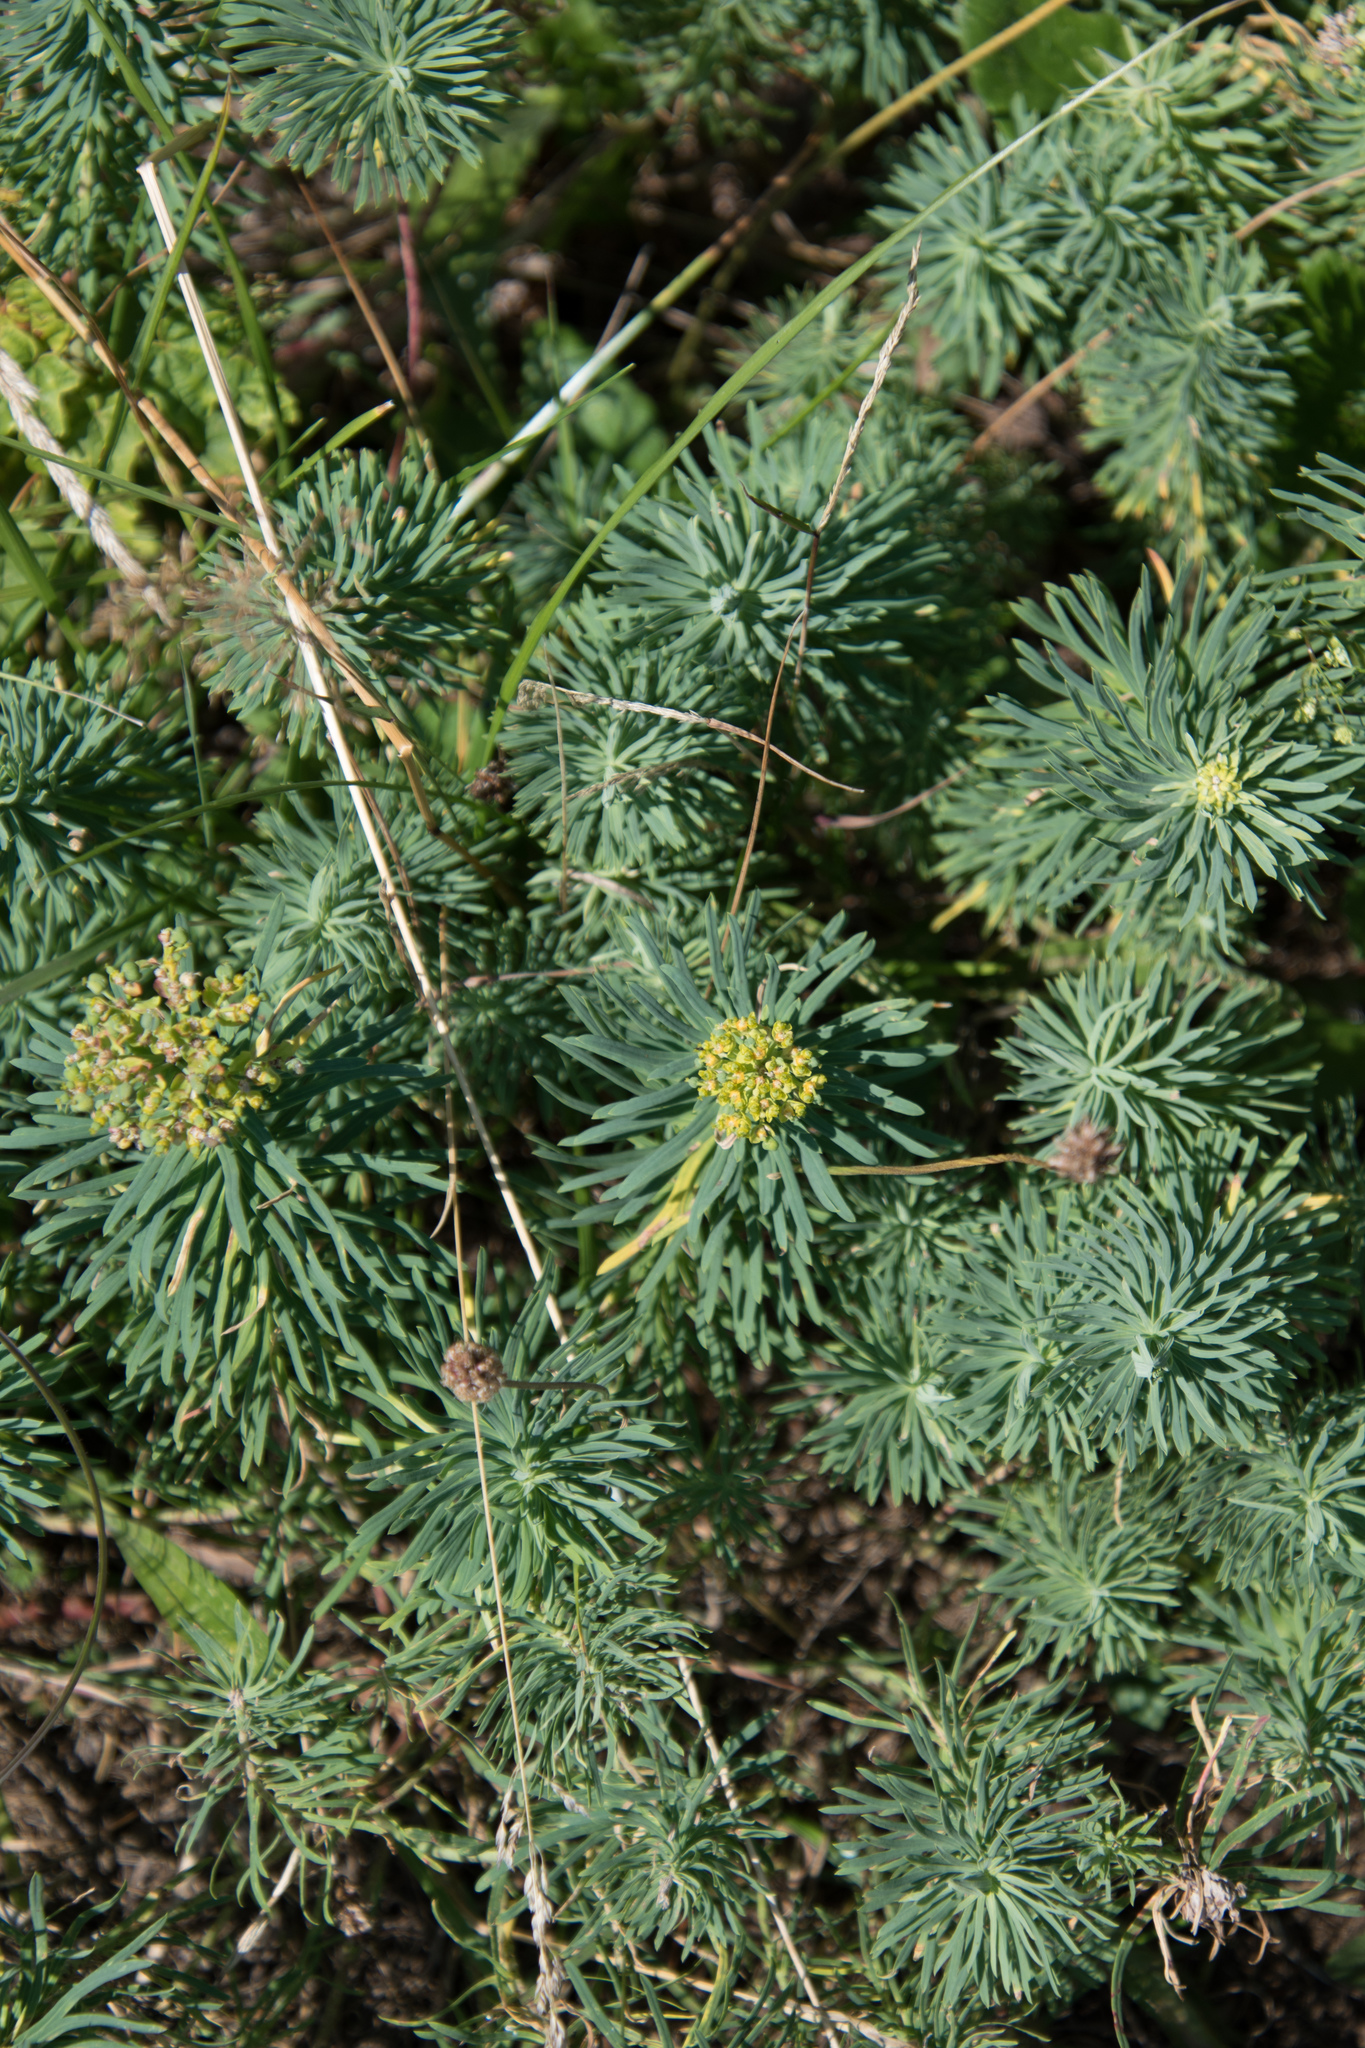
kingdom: Plantae
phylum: Tracheophyta
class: Magnoliopsida
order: Malpighiales
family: Euphorbiaceae
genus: Euphorbia
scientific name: Euphorbia cyparissias
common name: Cypress spurge
